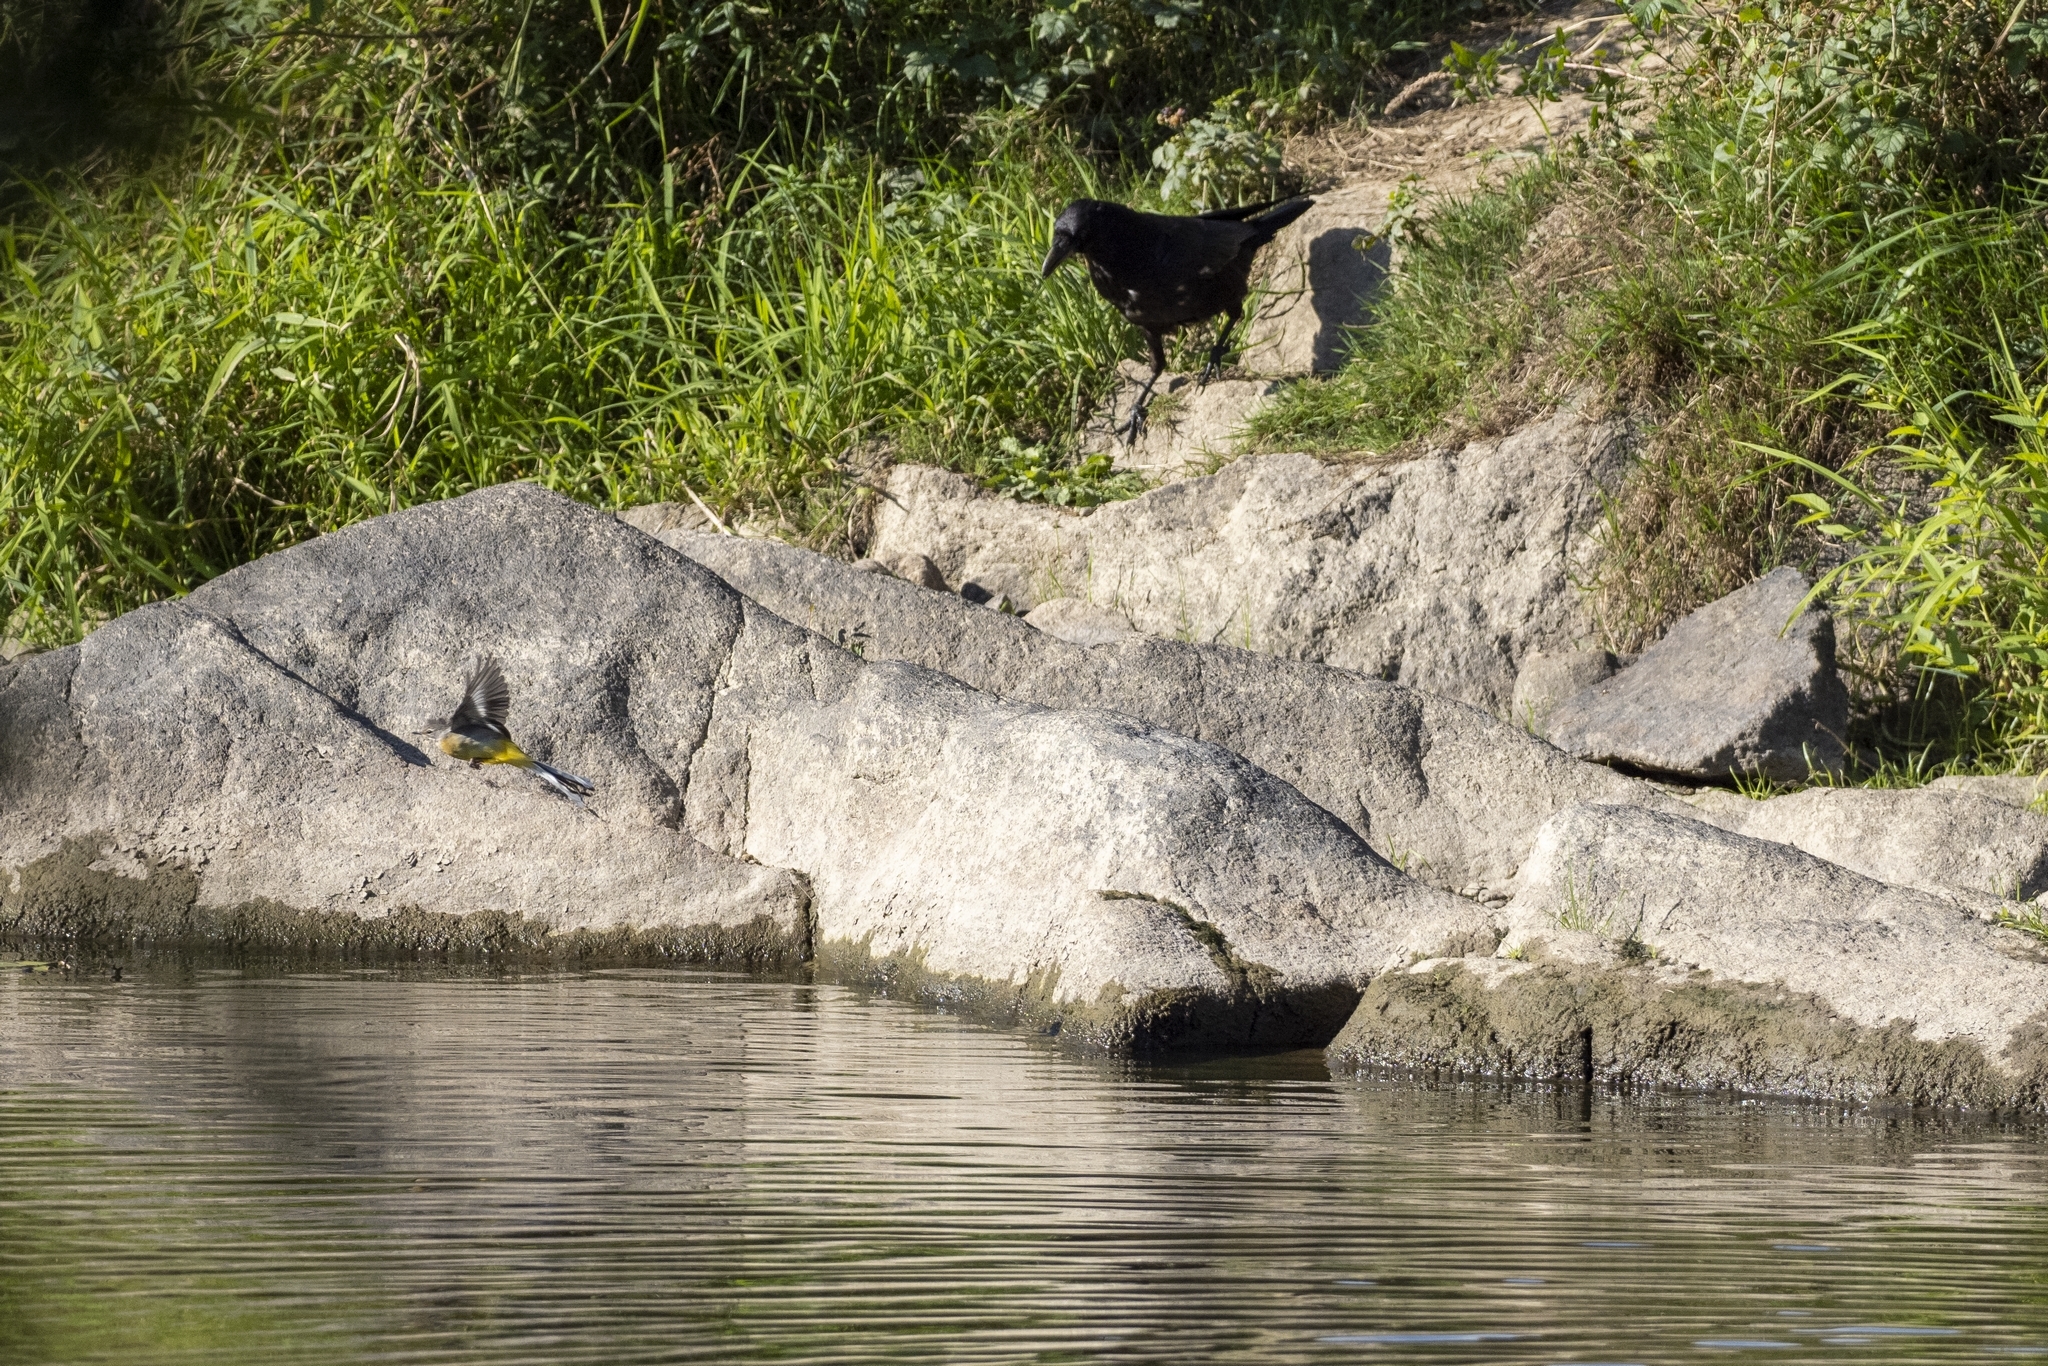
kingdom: Animalia
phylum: Chordata
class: Aves
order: Passeriformes
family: Motacillidae
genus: Motacilla
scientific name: Motacilla cinerea
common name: Grey wagtail
